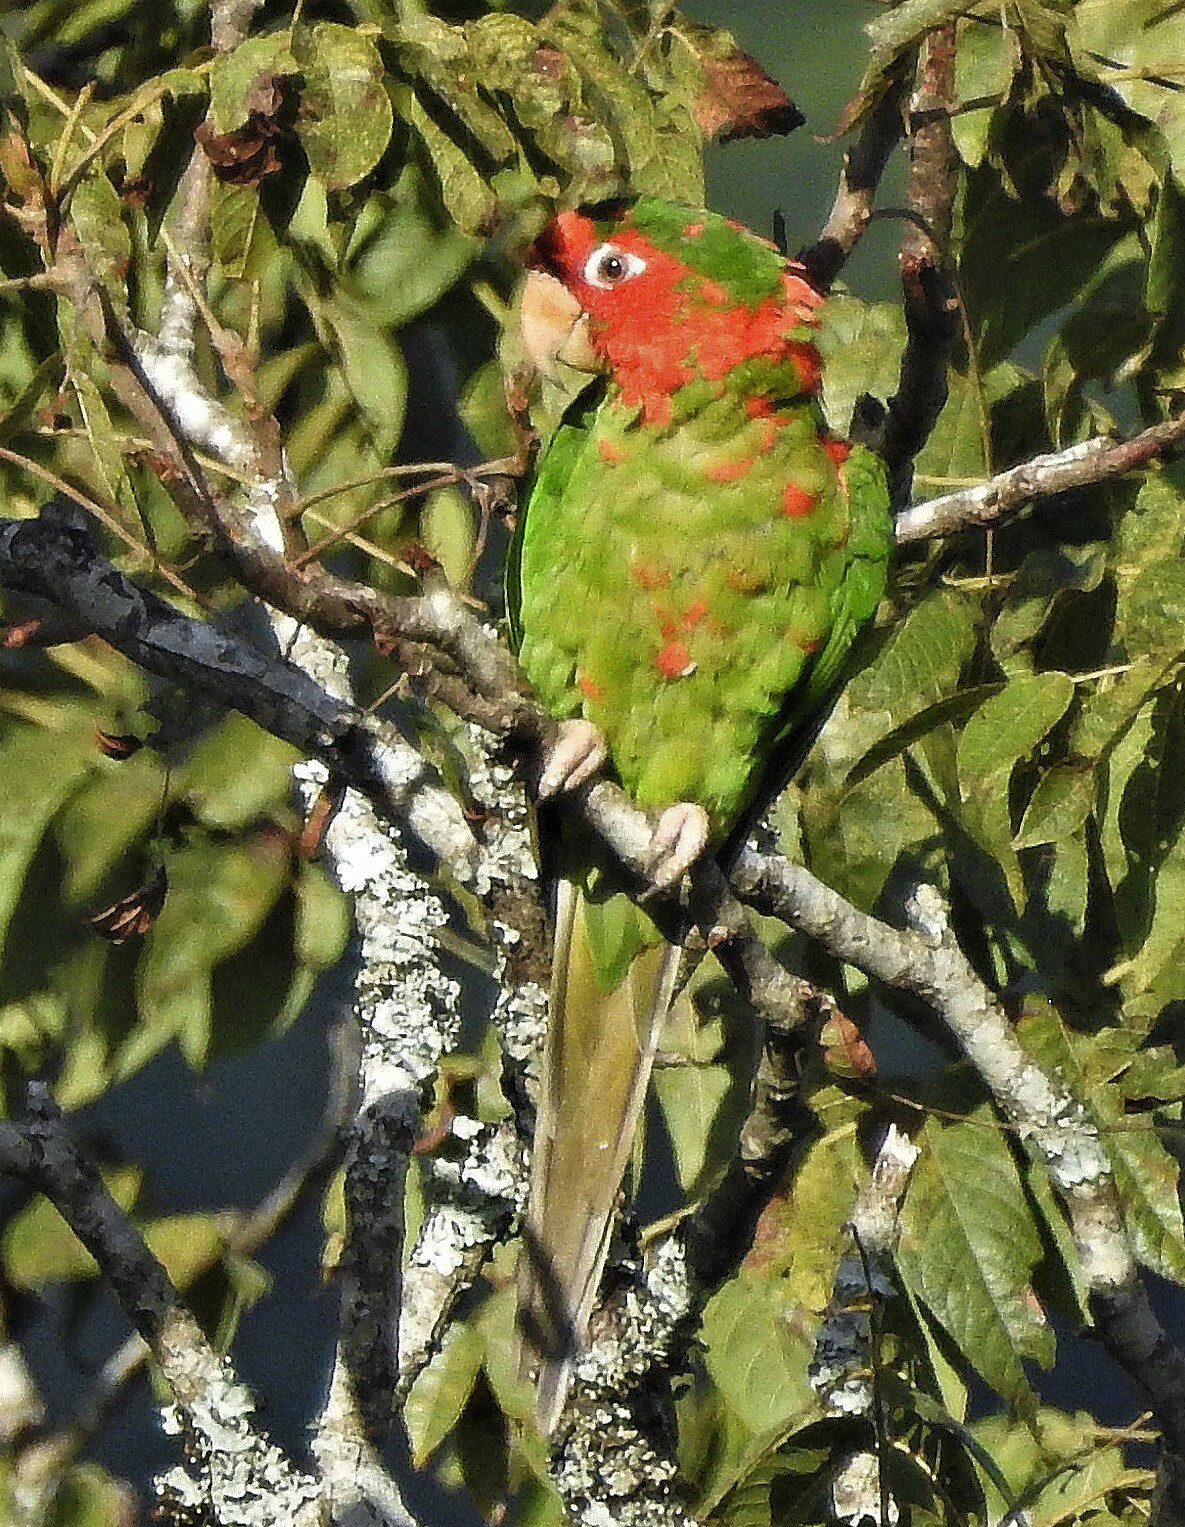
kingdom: Animalia
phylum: Chordata
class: Aves
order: Psittaciformes
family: Psittacidae
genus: Aratinga
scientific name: Aratinga mitrata
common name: Mitred parakeet
